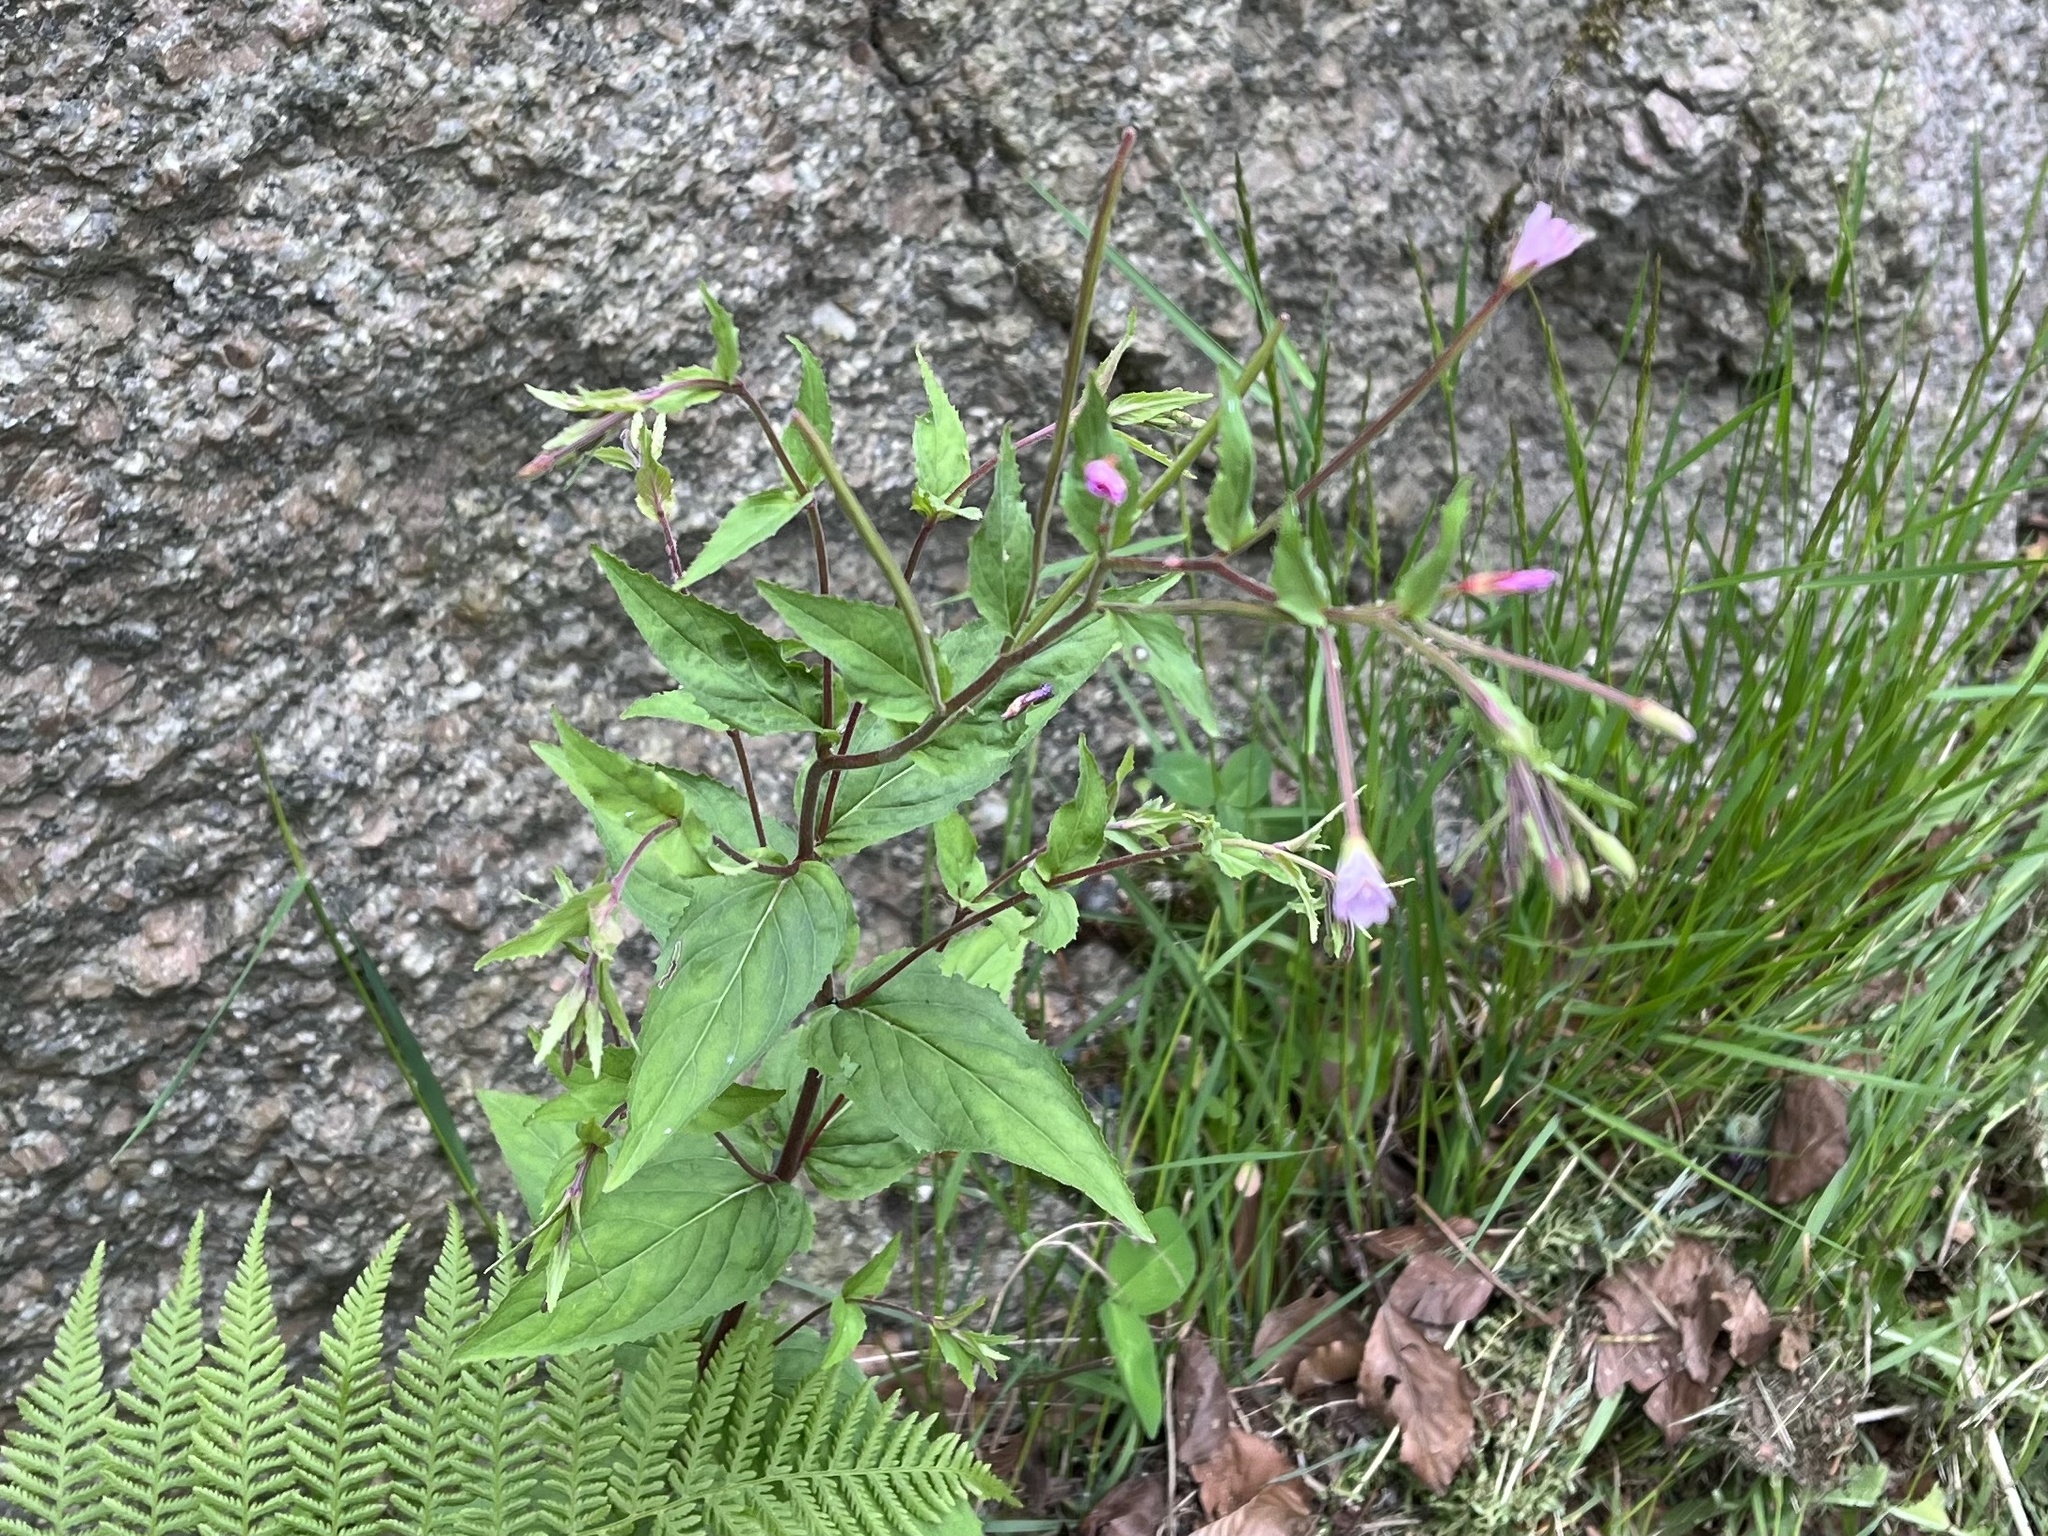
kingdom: Plantae
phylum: Tracheophyta
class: Magnoliopsida
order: Myrtales
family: Onagraceae
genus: Epilobium
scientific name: Epilobium montanum
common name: Broad-leaved willowherb
